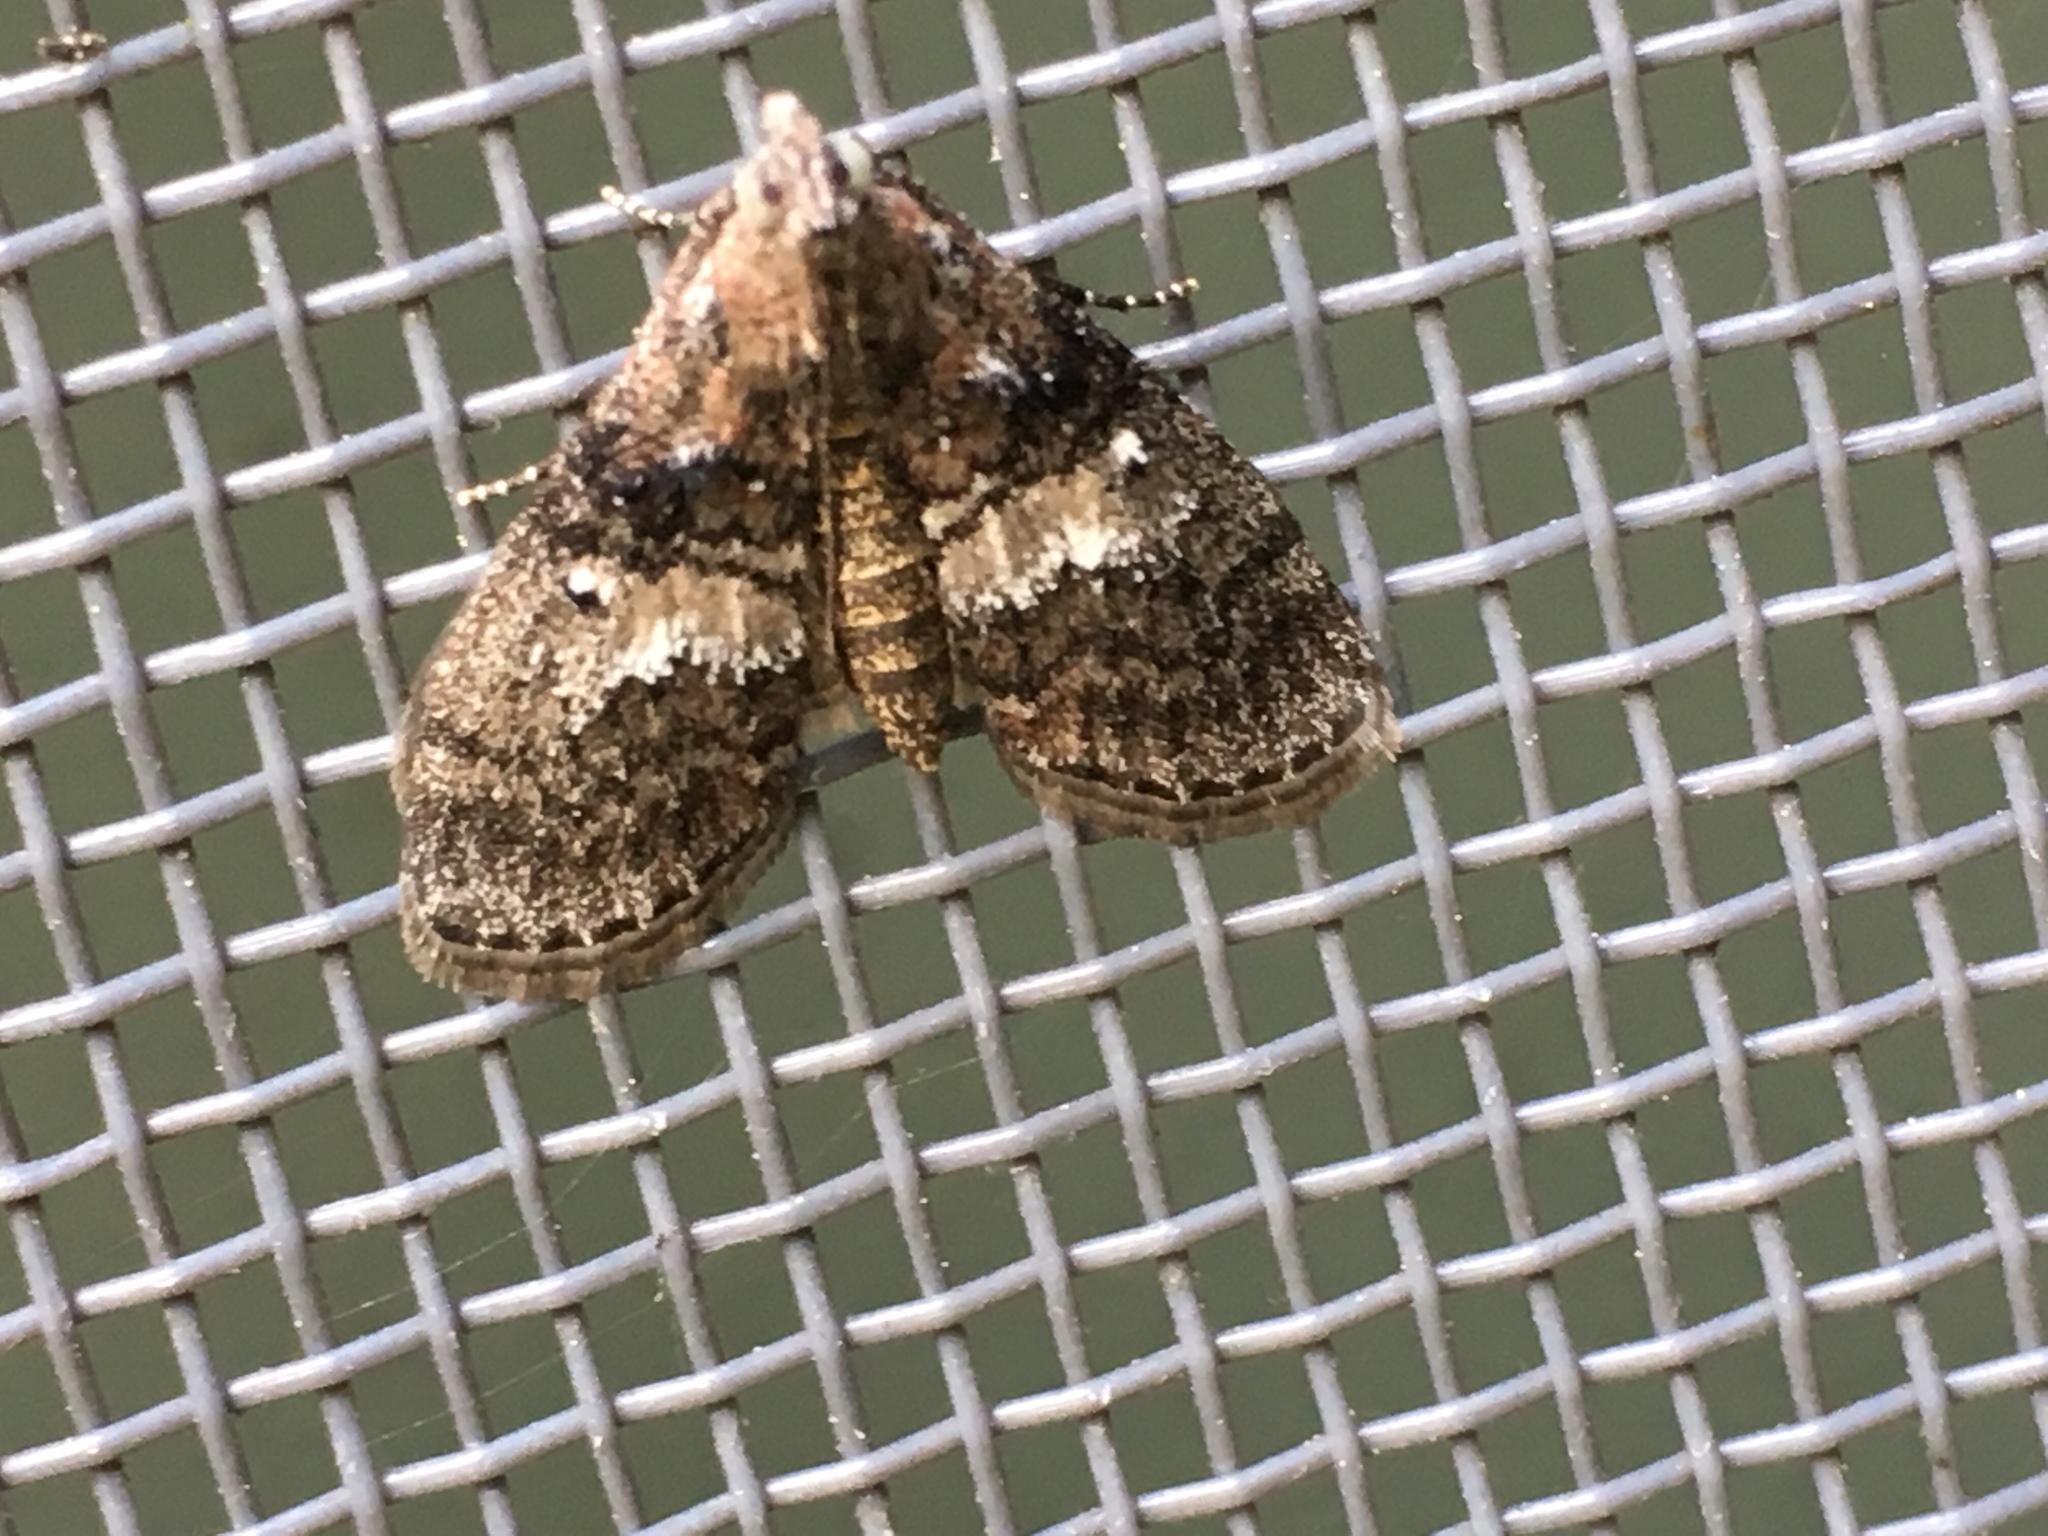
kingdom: Animalia
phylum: Arthropoda
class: Insecta
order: Lepidoptera
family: Pyralidae
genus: Pococera
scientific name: Pococera asperatella
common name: Maple webworm moth
